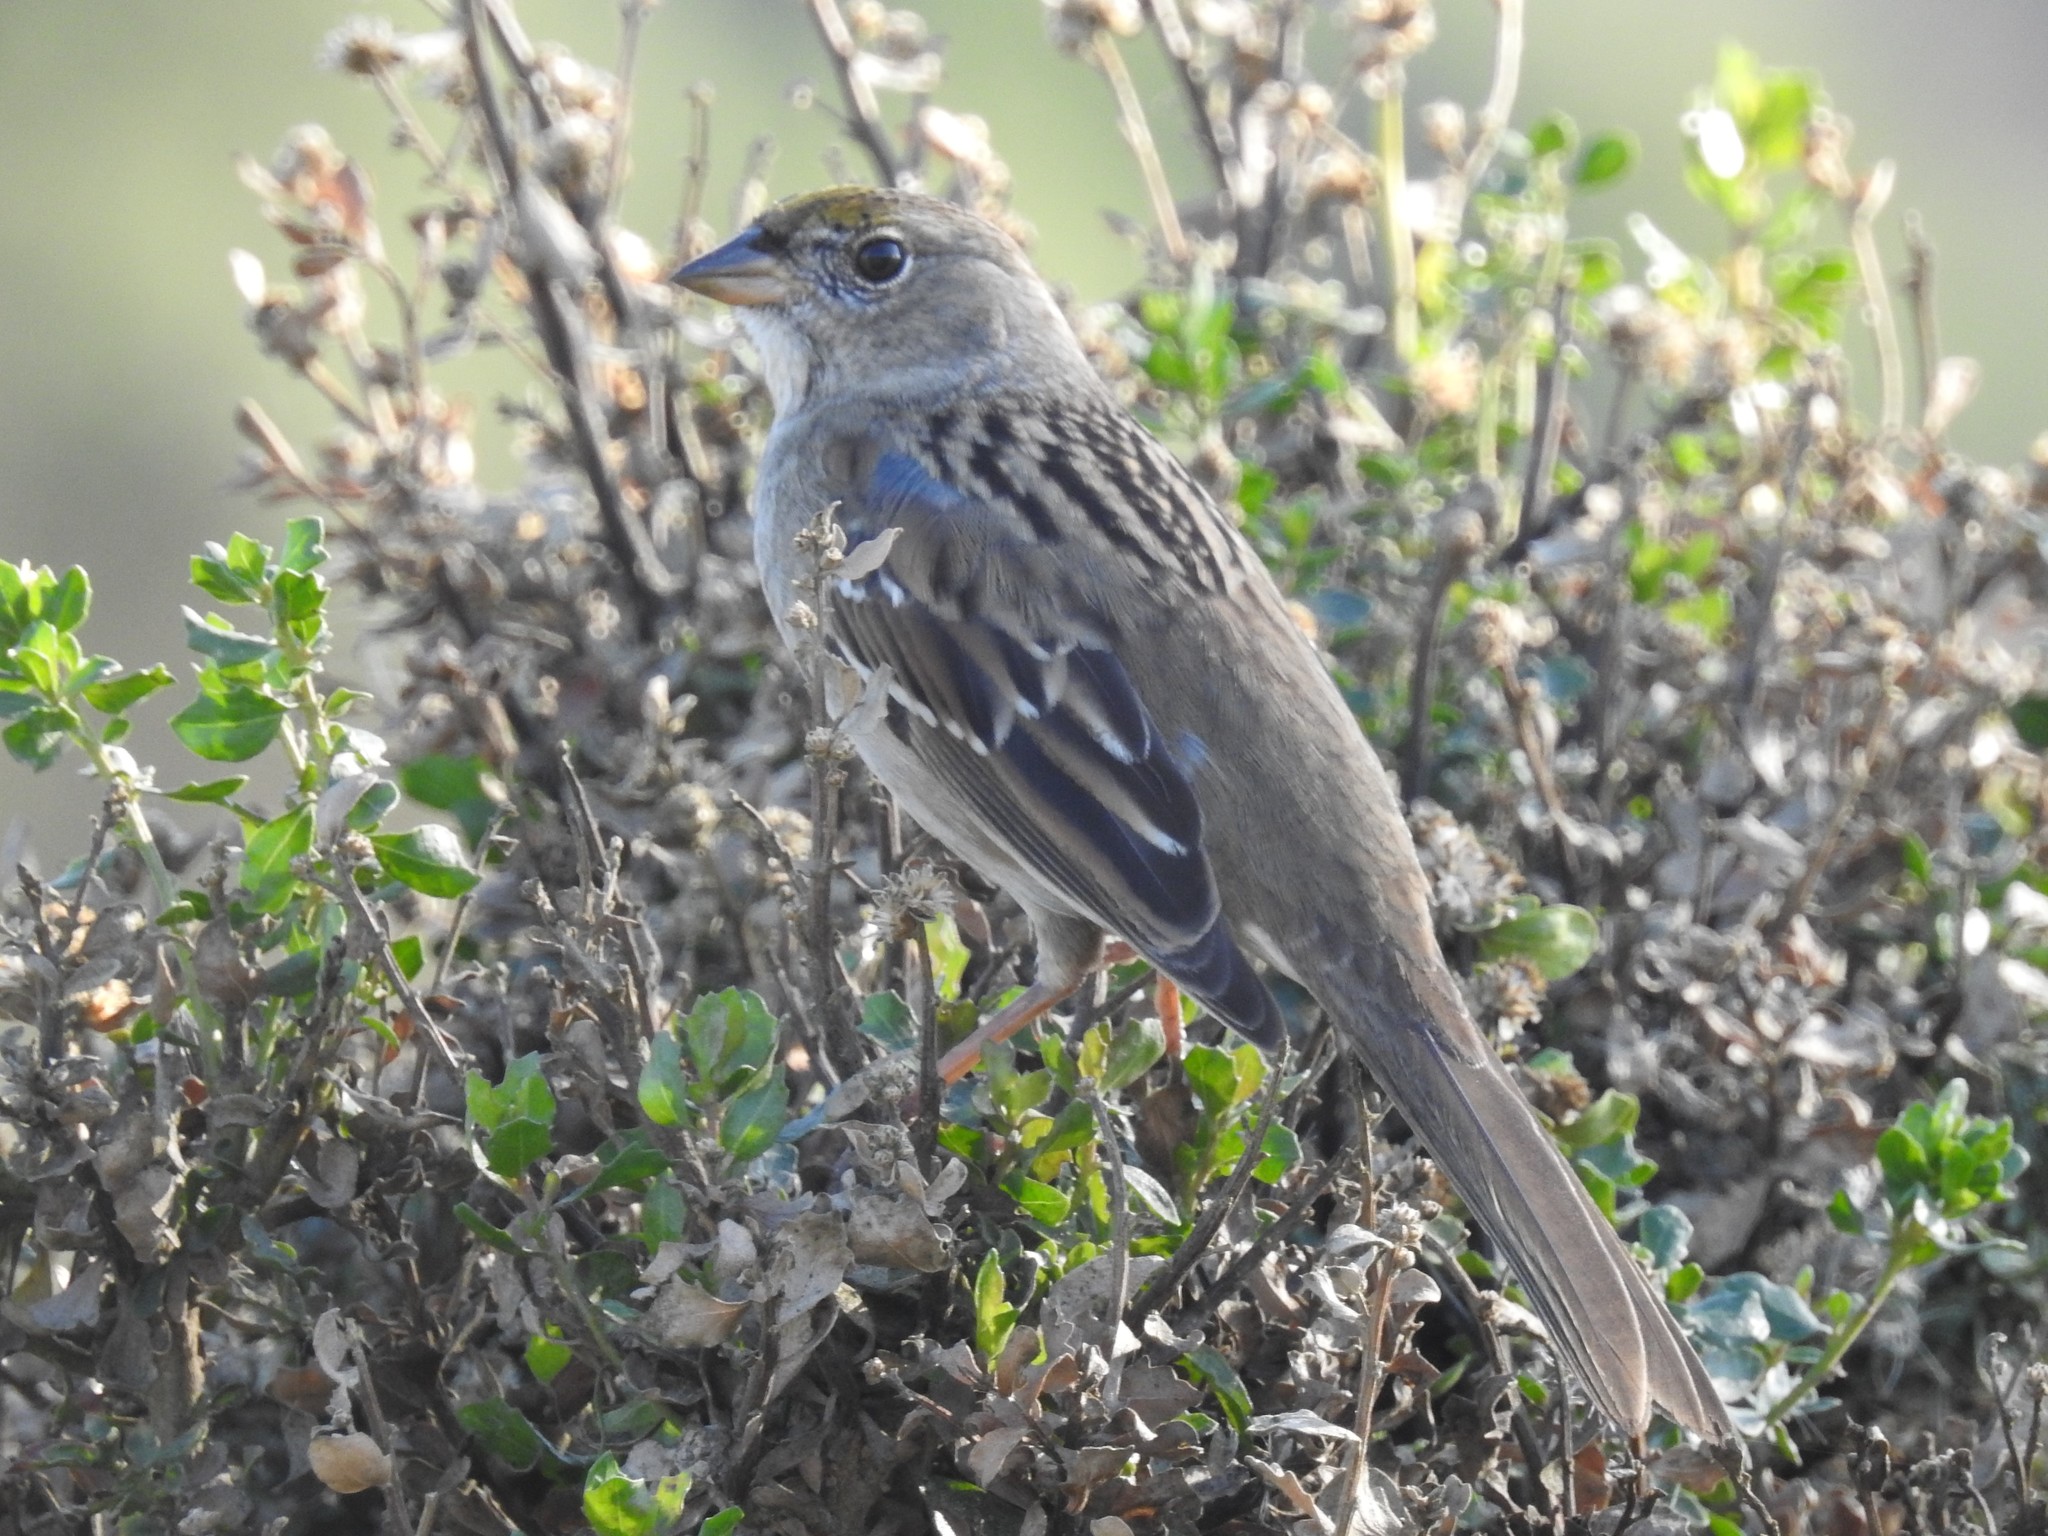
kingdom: Animalia
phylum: Chordata
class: Aves
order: Passeriformes
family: Passerellidae
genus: Zonotrichia
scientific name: Zonotrichia atricapilla
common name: Golden-crowned sparrow
